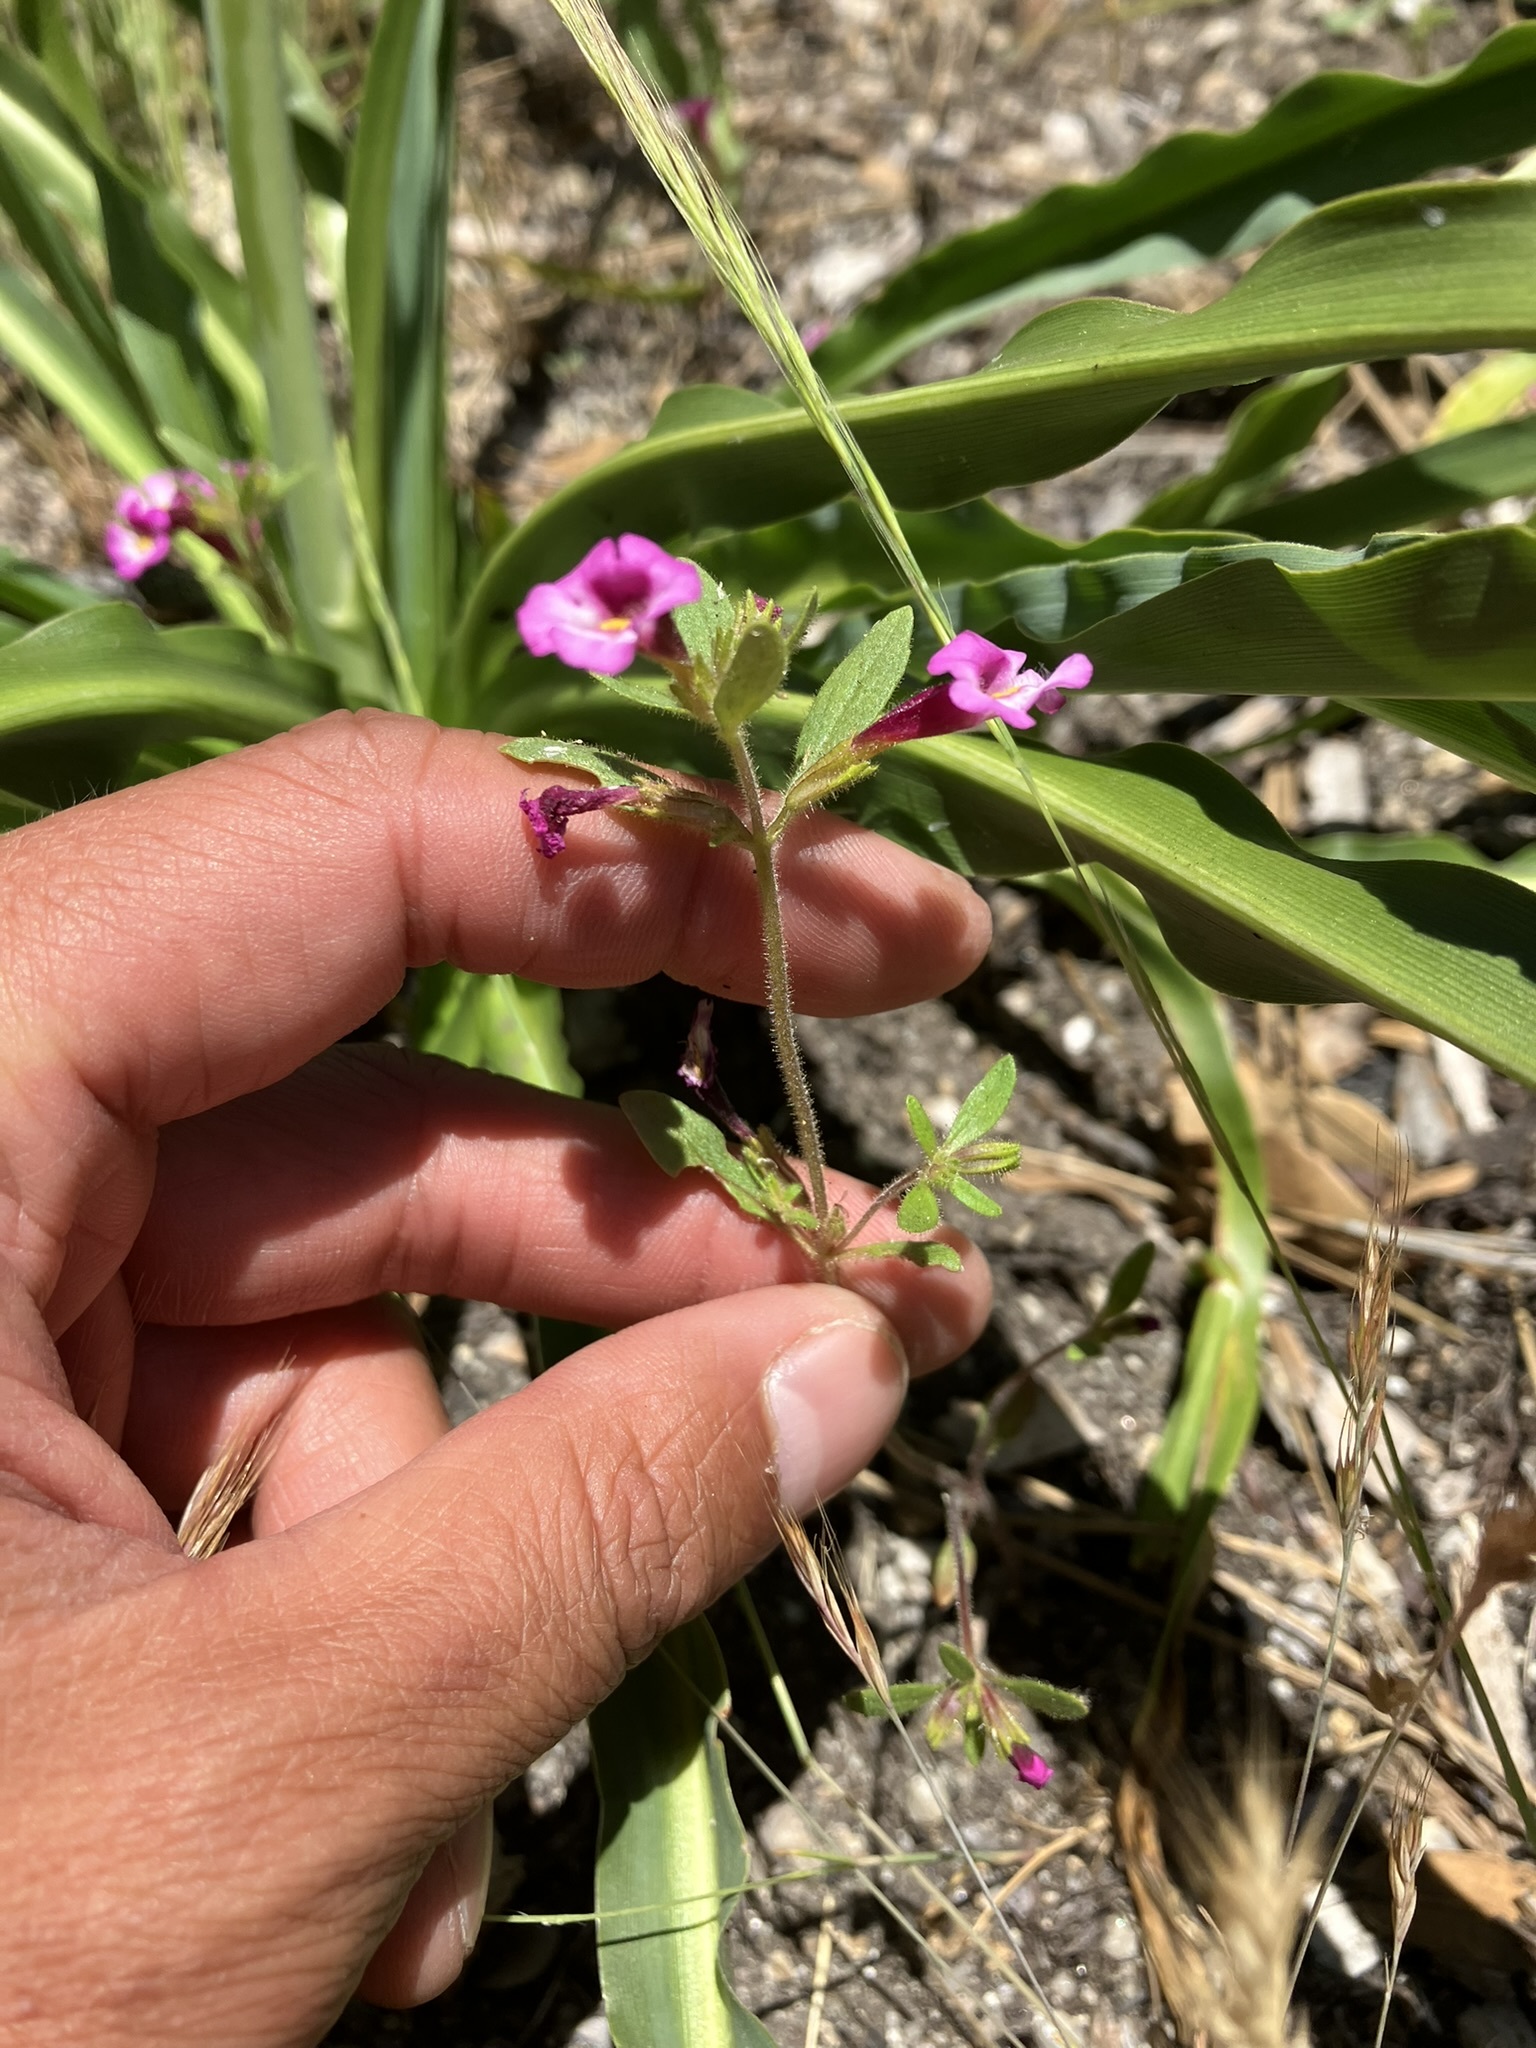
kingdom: Plantae
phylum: Tracheophyta
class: Magnoliopsida
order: Lamiales
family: Phrymaceae
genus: Diplacus
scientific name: Diplacus torreyi
